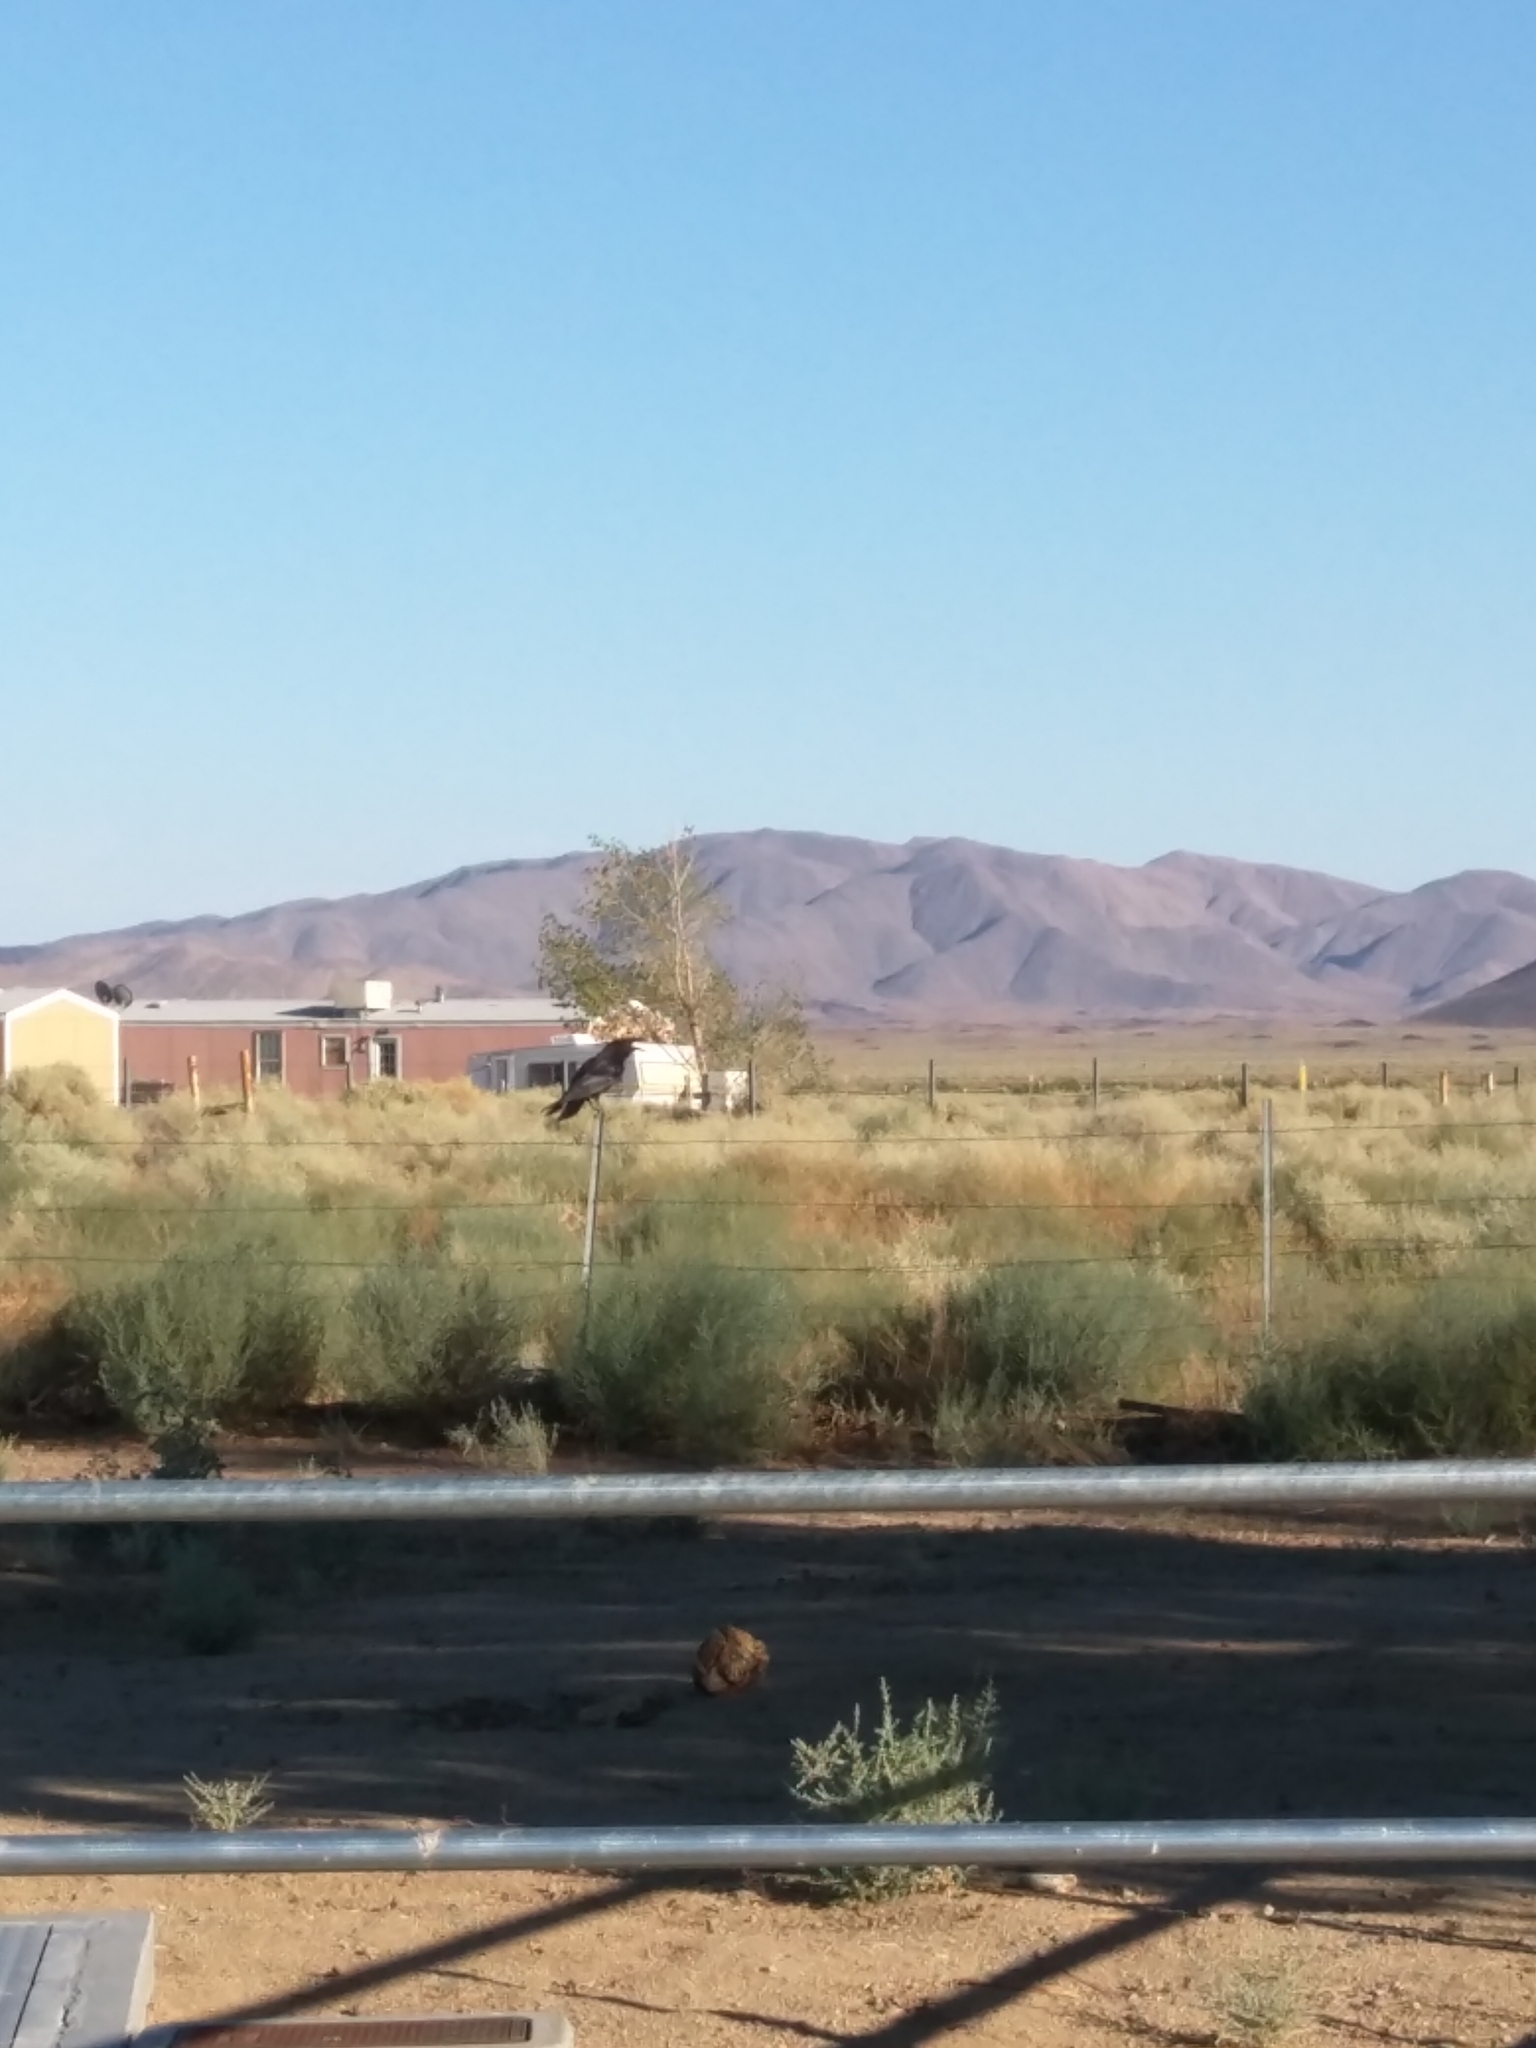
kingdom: Animalia
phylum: Chordata
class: Aves
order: Passeriformes
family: Corvidae
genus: Corvus
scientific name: Corvus corax
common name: Common raven
